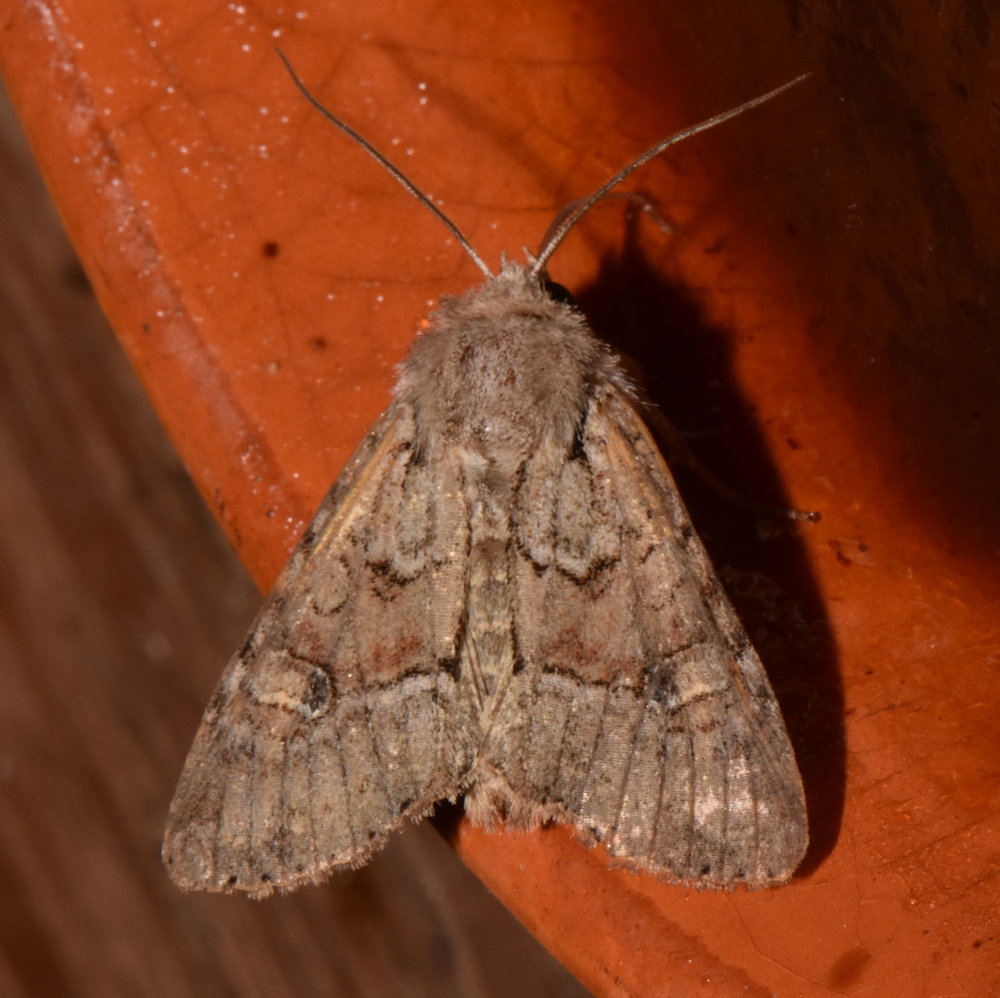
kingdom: Animalia
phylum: Arthropoda
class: Insecta
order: Lepidoptera
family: Noctuidae
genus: Apamea
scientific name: Apamea sordens
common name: Rustic shoulder-knot
